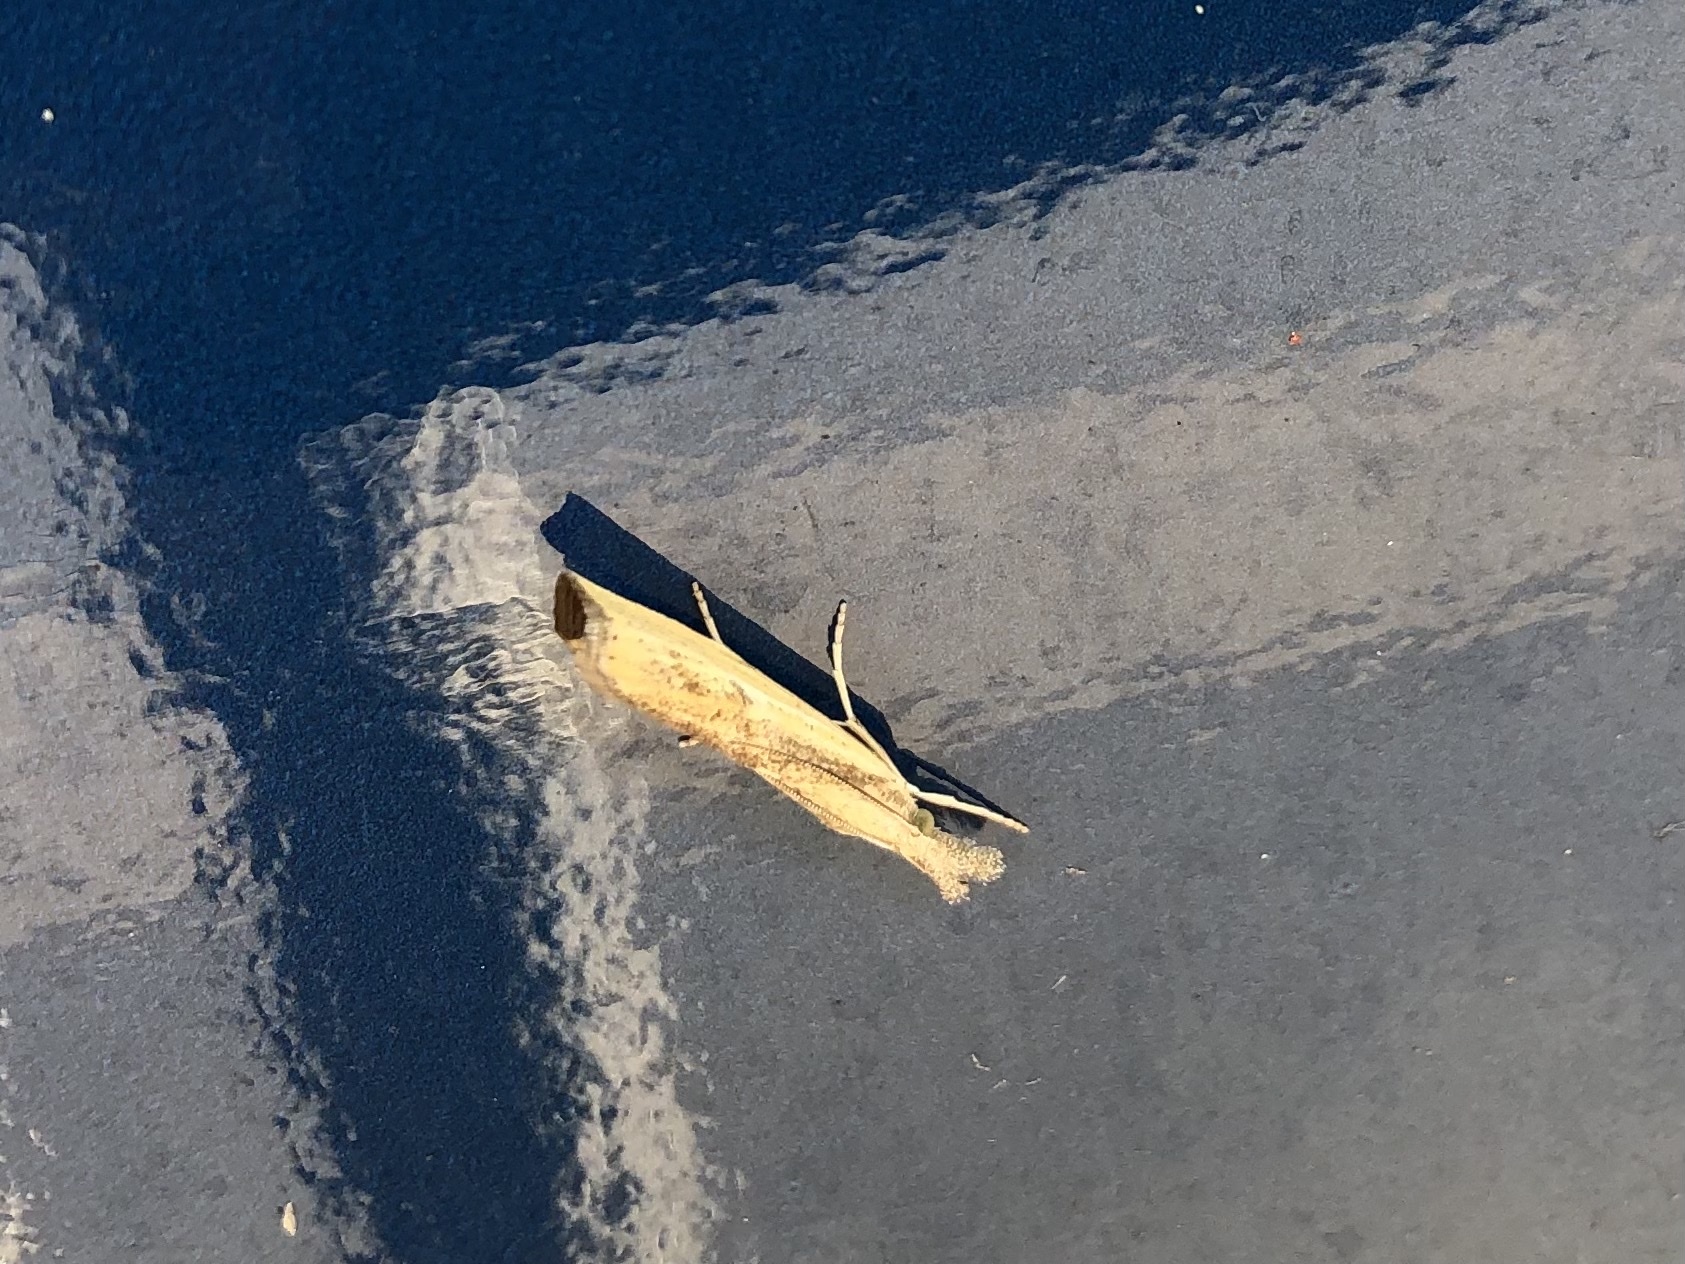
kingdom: Animalia
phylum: Arthropoda
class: Insecta
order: Lepidoptera
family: Crambidae
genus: Agriphila
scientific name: Agriphila inquinatella
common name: Barred grass-veneer
